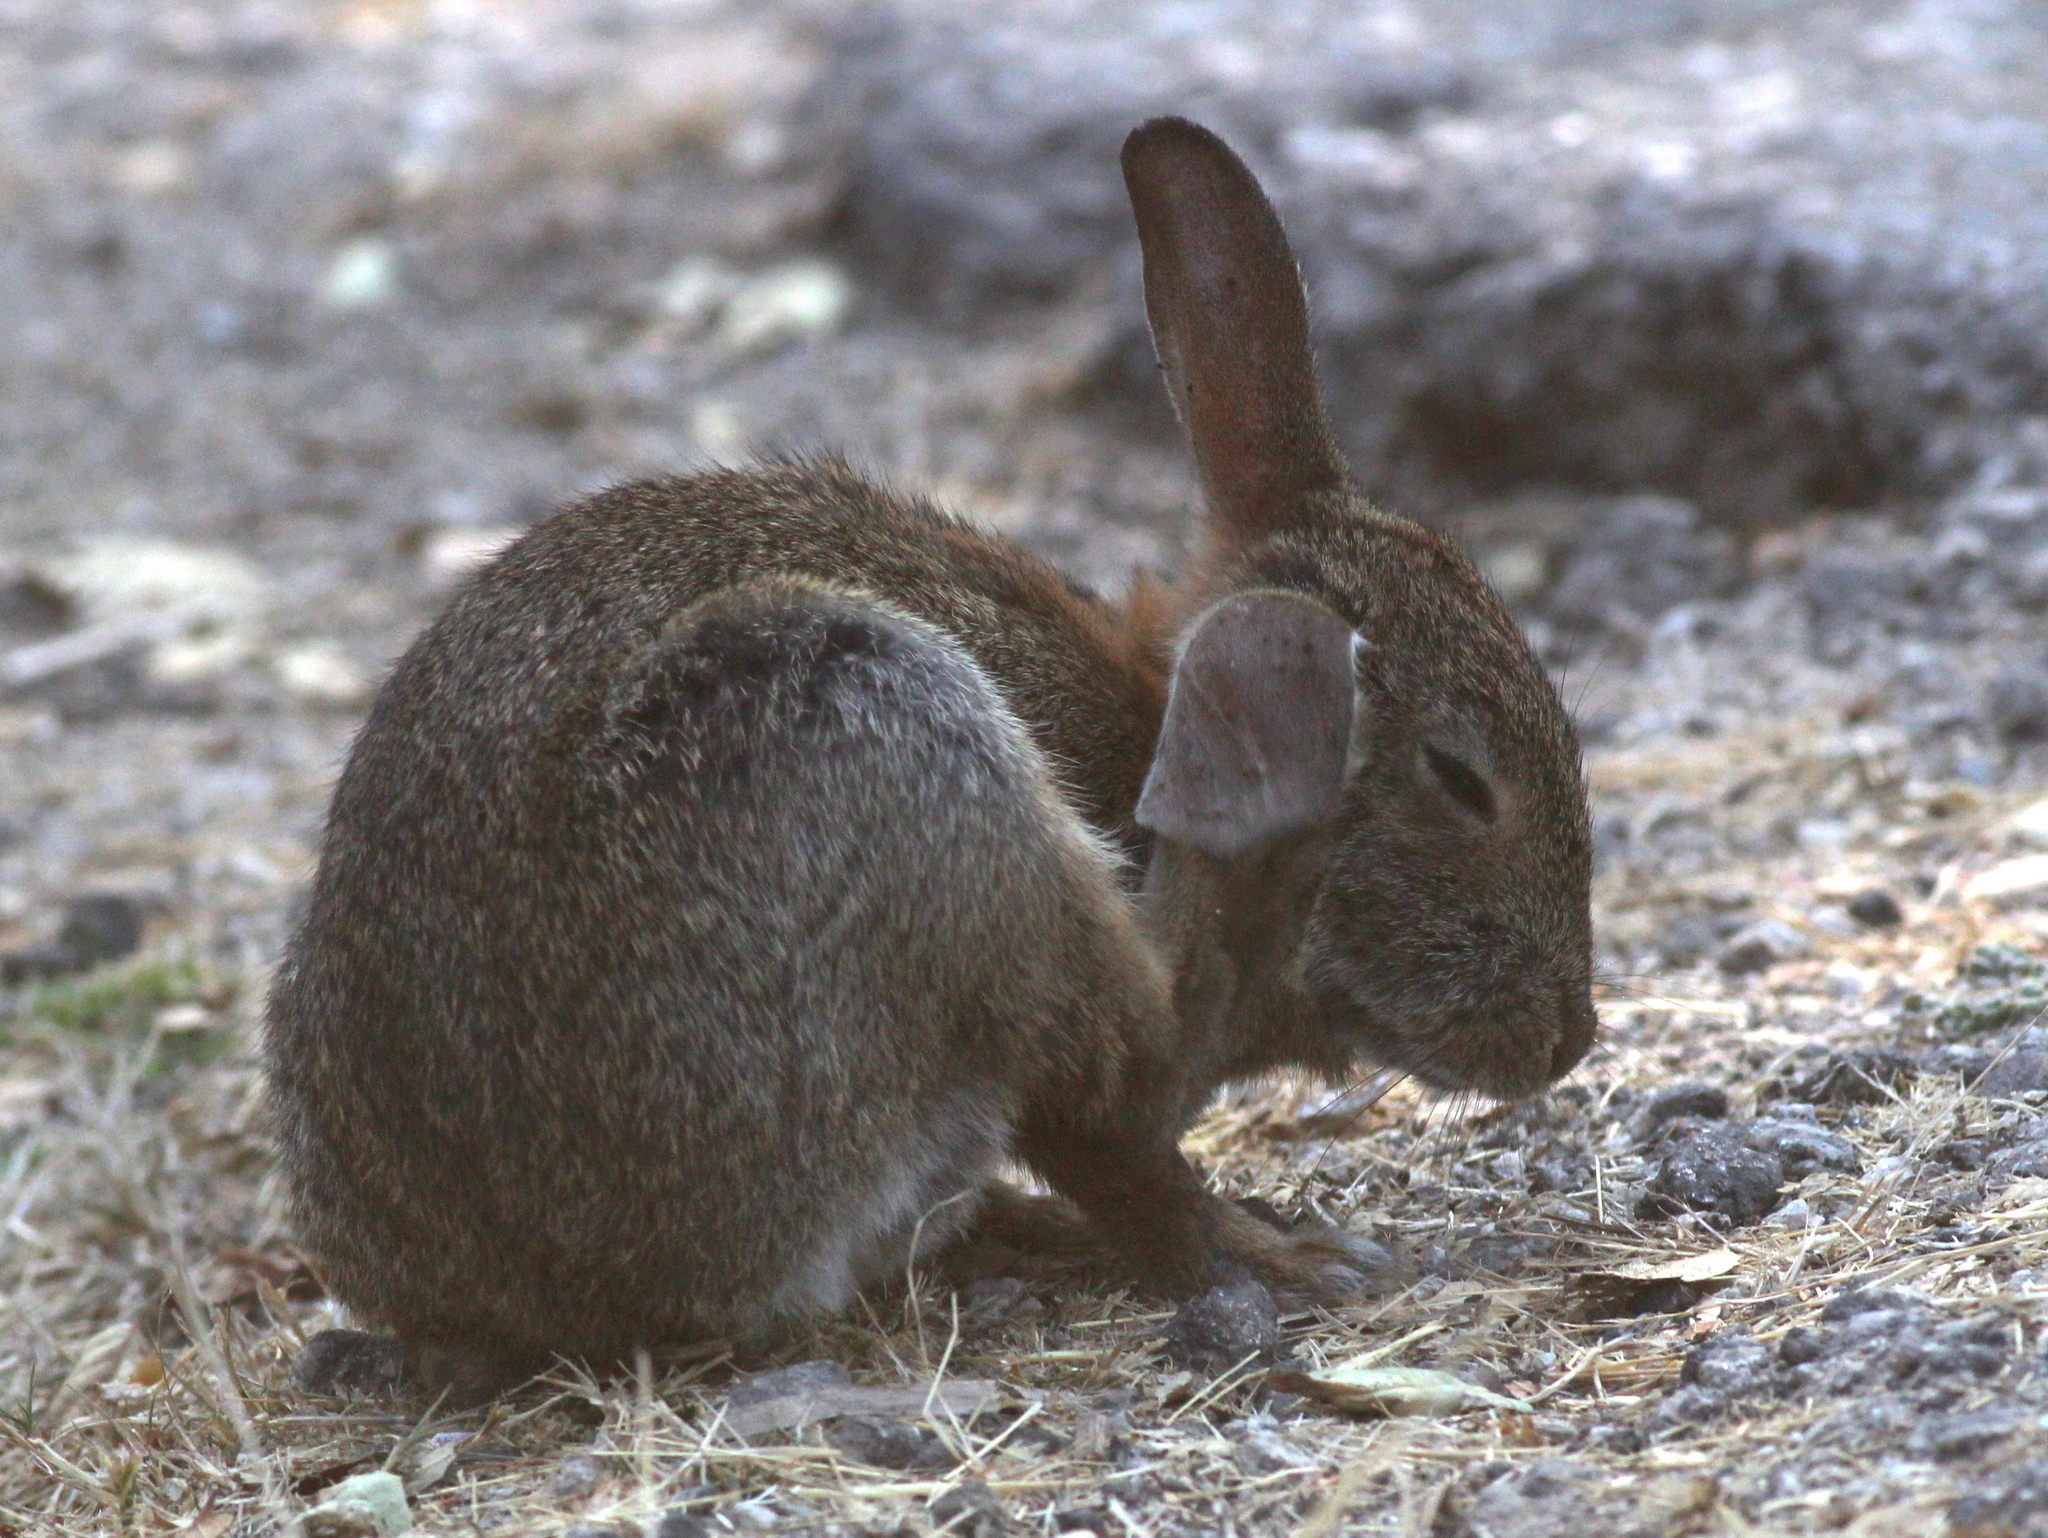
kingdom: Animalia
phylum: Chordata
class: Mammalia
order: Lagomorpha
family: Leporidae
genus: Sylvilagus
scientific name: Sylvilagus bachmani
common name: Brush rabbit
